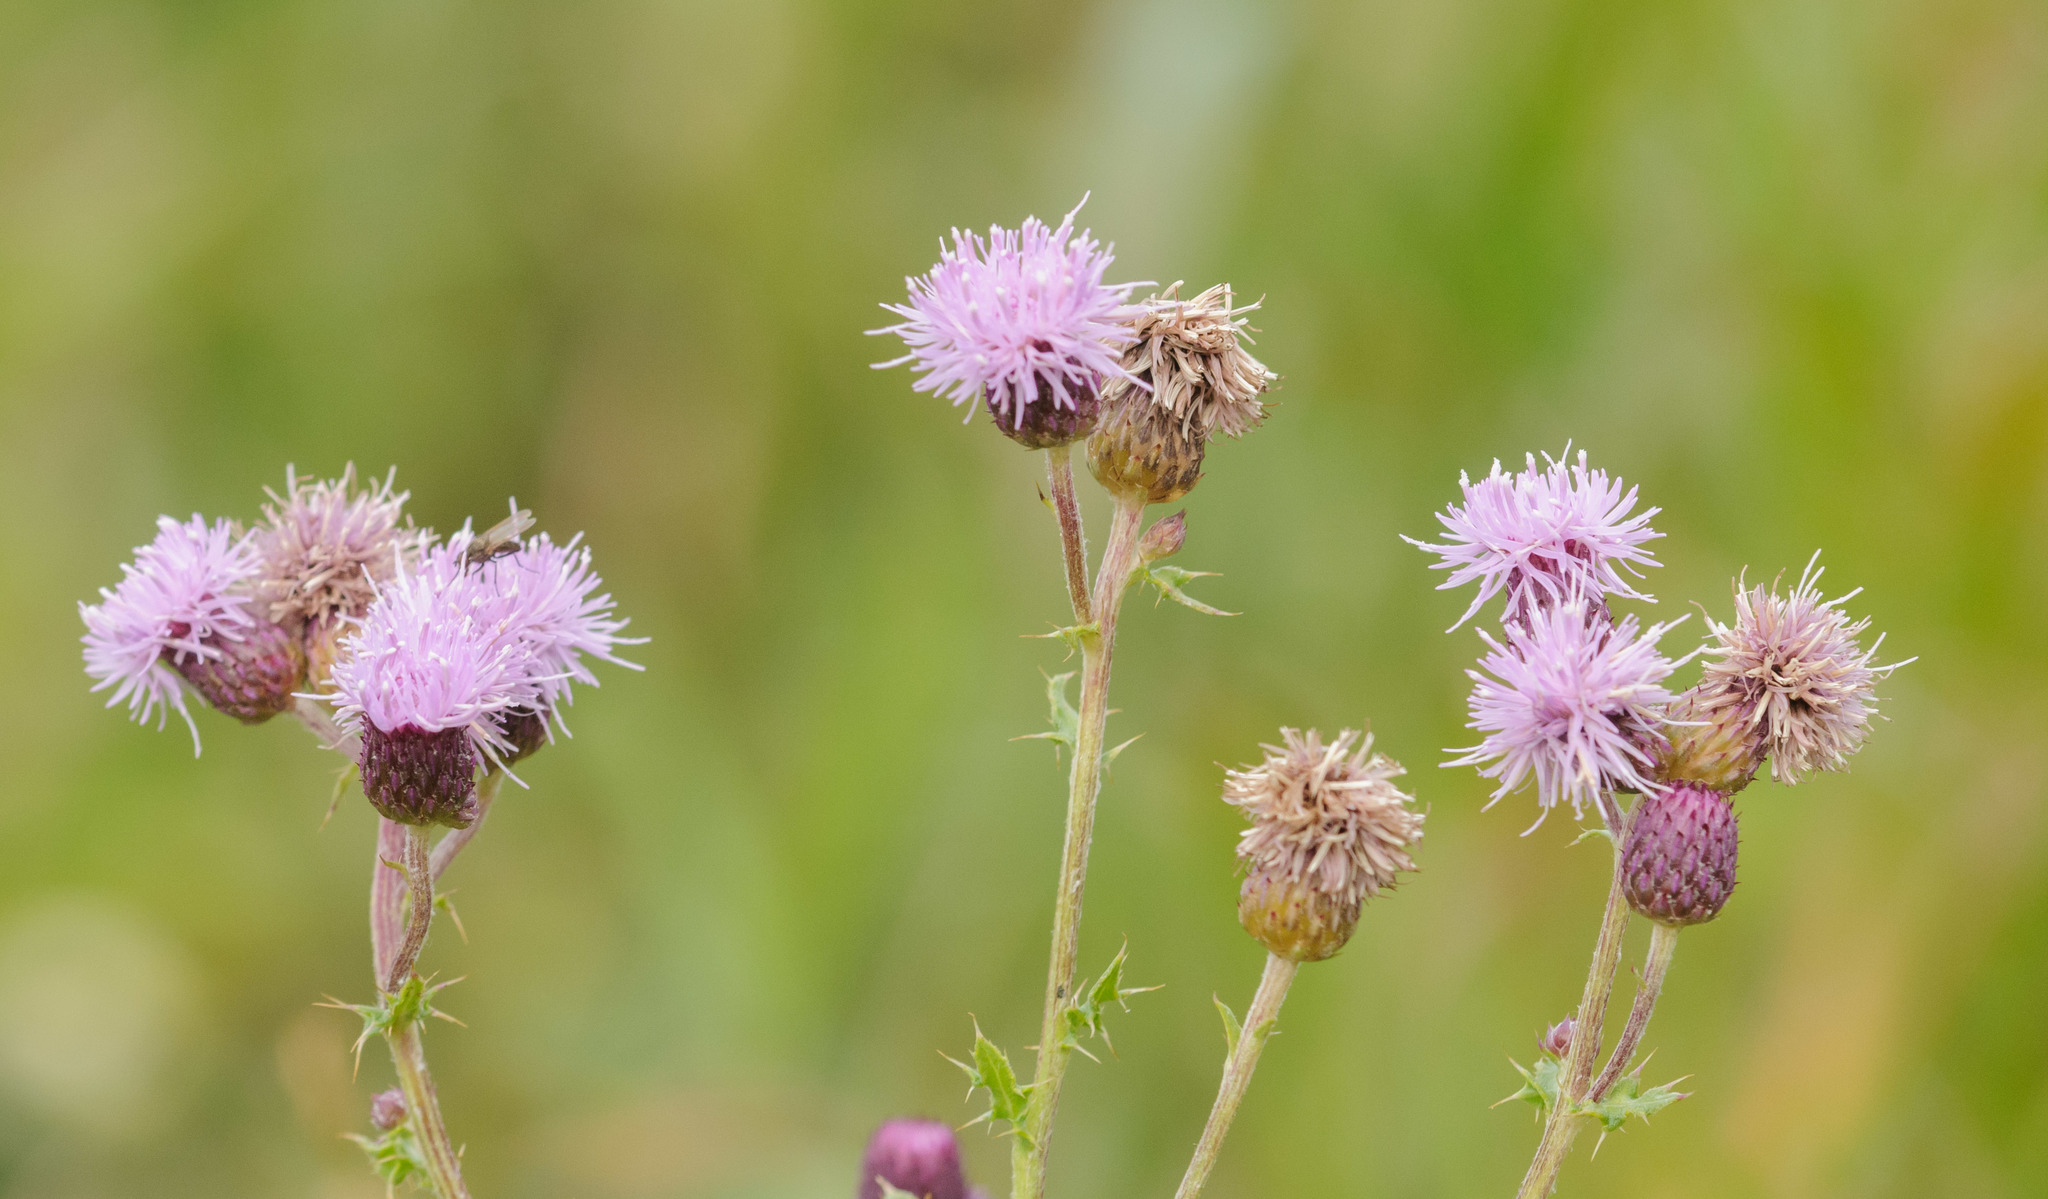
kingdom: Plantae
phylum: Tracheophyta
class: Magnoliopsida
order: Asterales
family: Asteraceae
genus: Cirsium
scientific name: Cirsium arvense
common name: Creeping thistle
